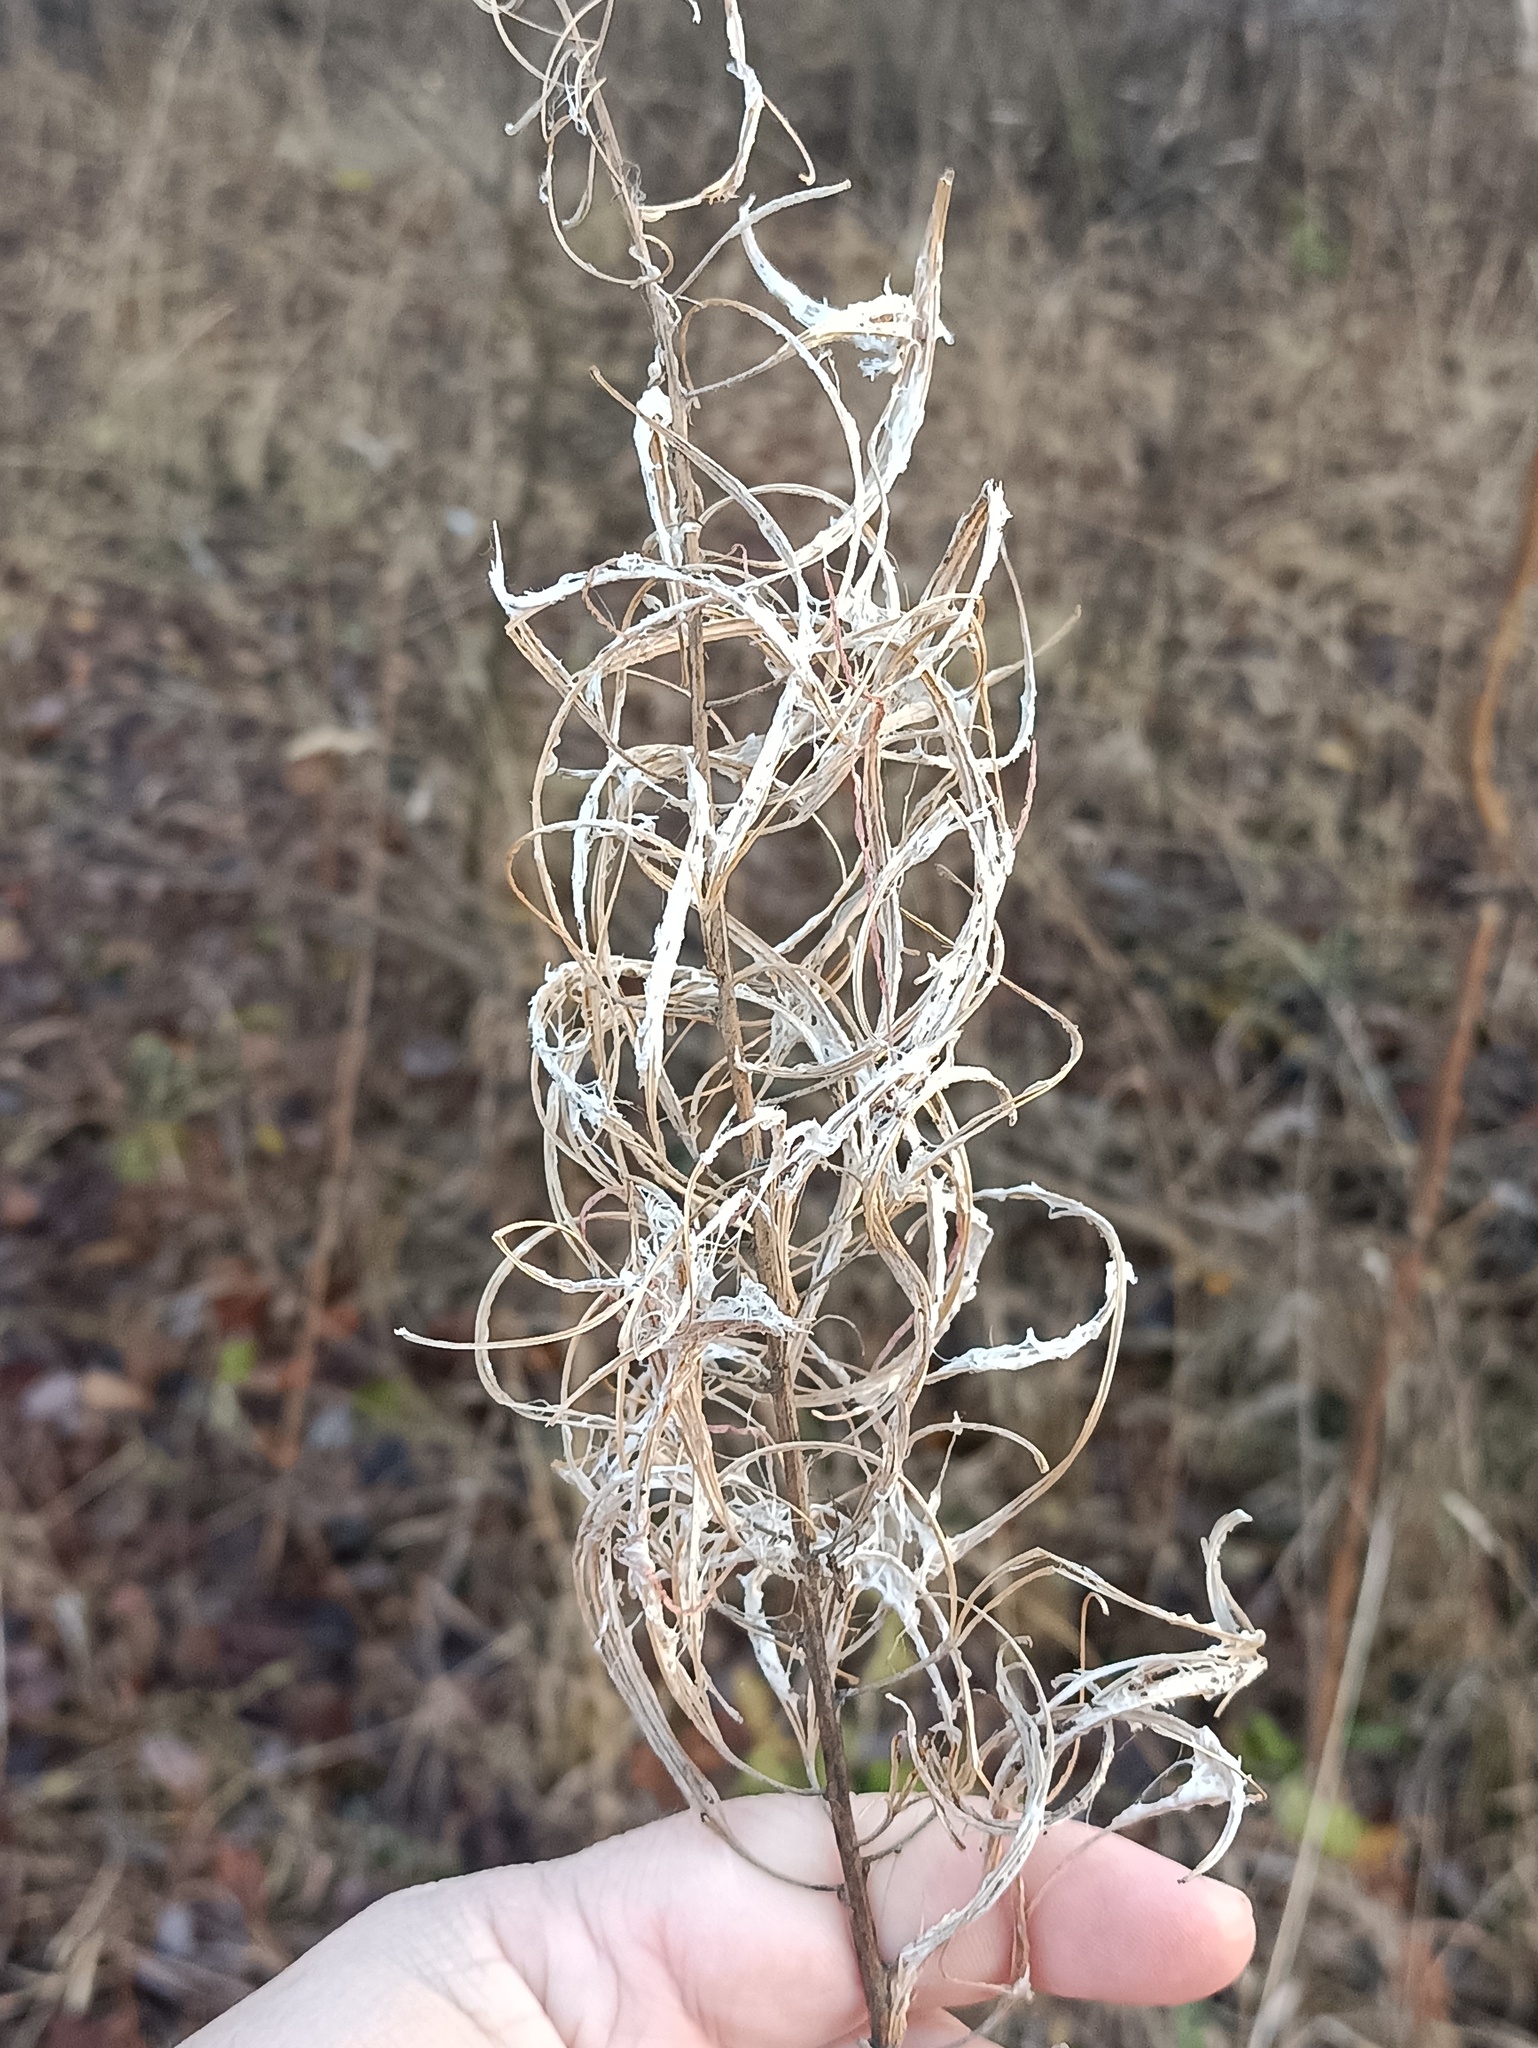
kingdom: Plantae
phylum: Tracheophyta
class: Magnoliopsida
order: Myrtales
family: Onagraceae
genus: Chamaenerion
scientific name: Chamaenerion angustifolium
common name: Fireweed
